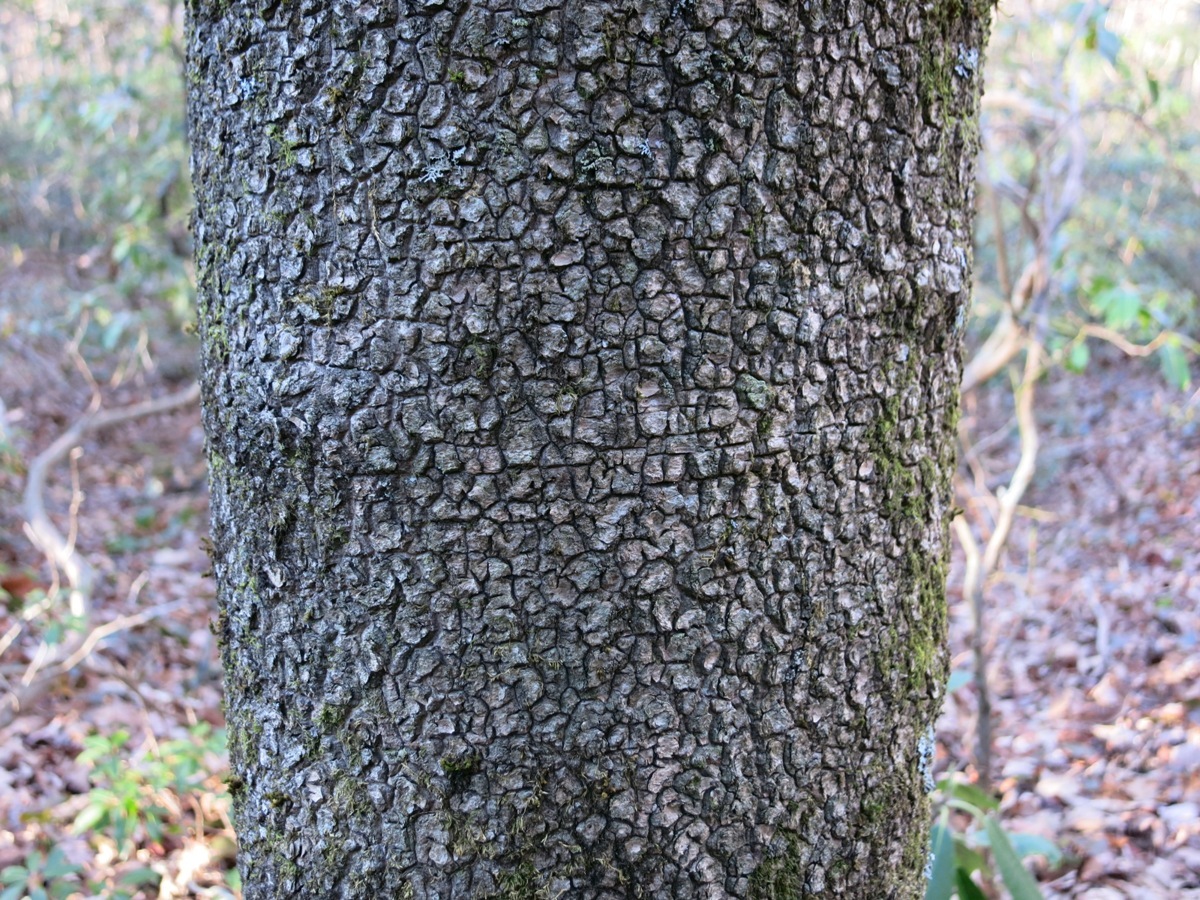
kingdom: Plantae
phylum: Tracheophyta
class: Magnoliopsida
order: Magnoliales
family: Magnoliaceae
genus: Magnolia
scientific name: Magnolia fraseri
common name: Fraser's magnolia
